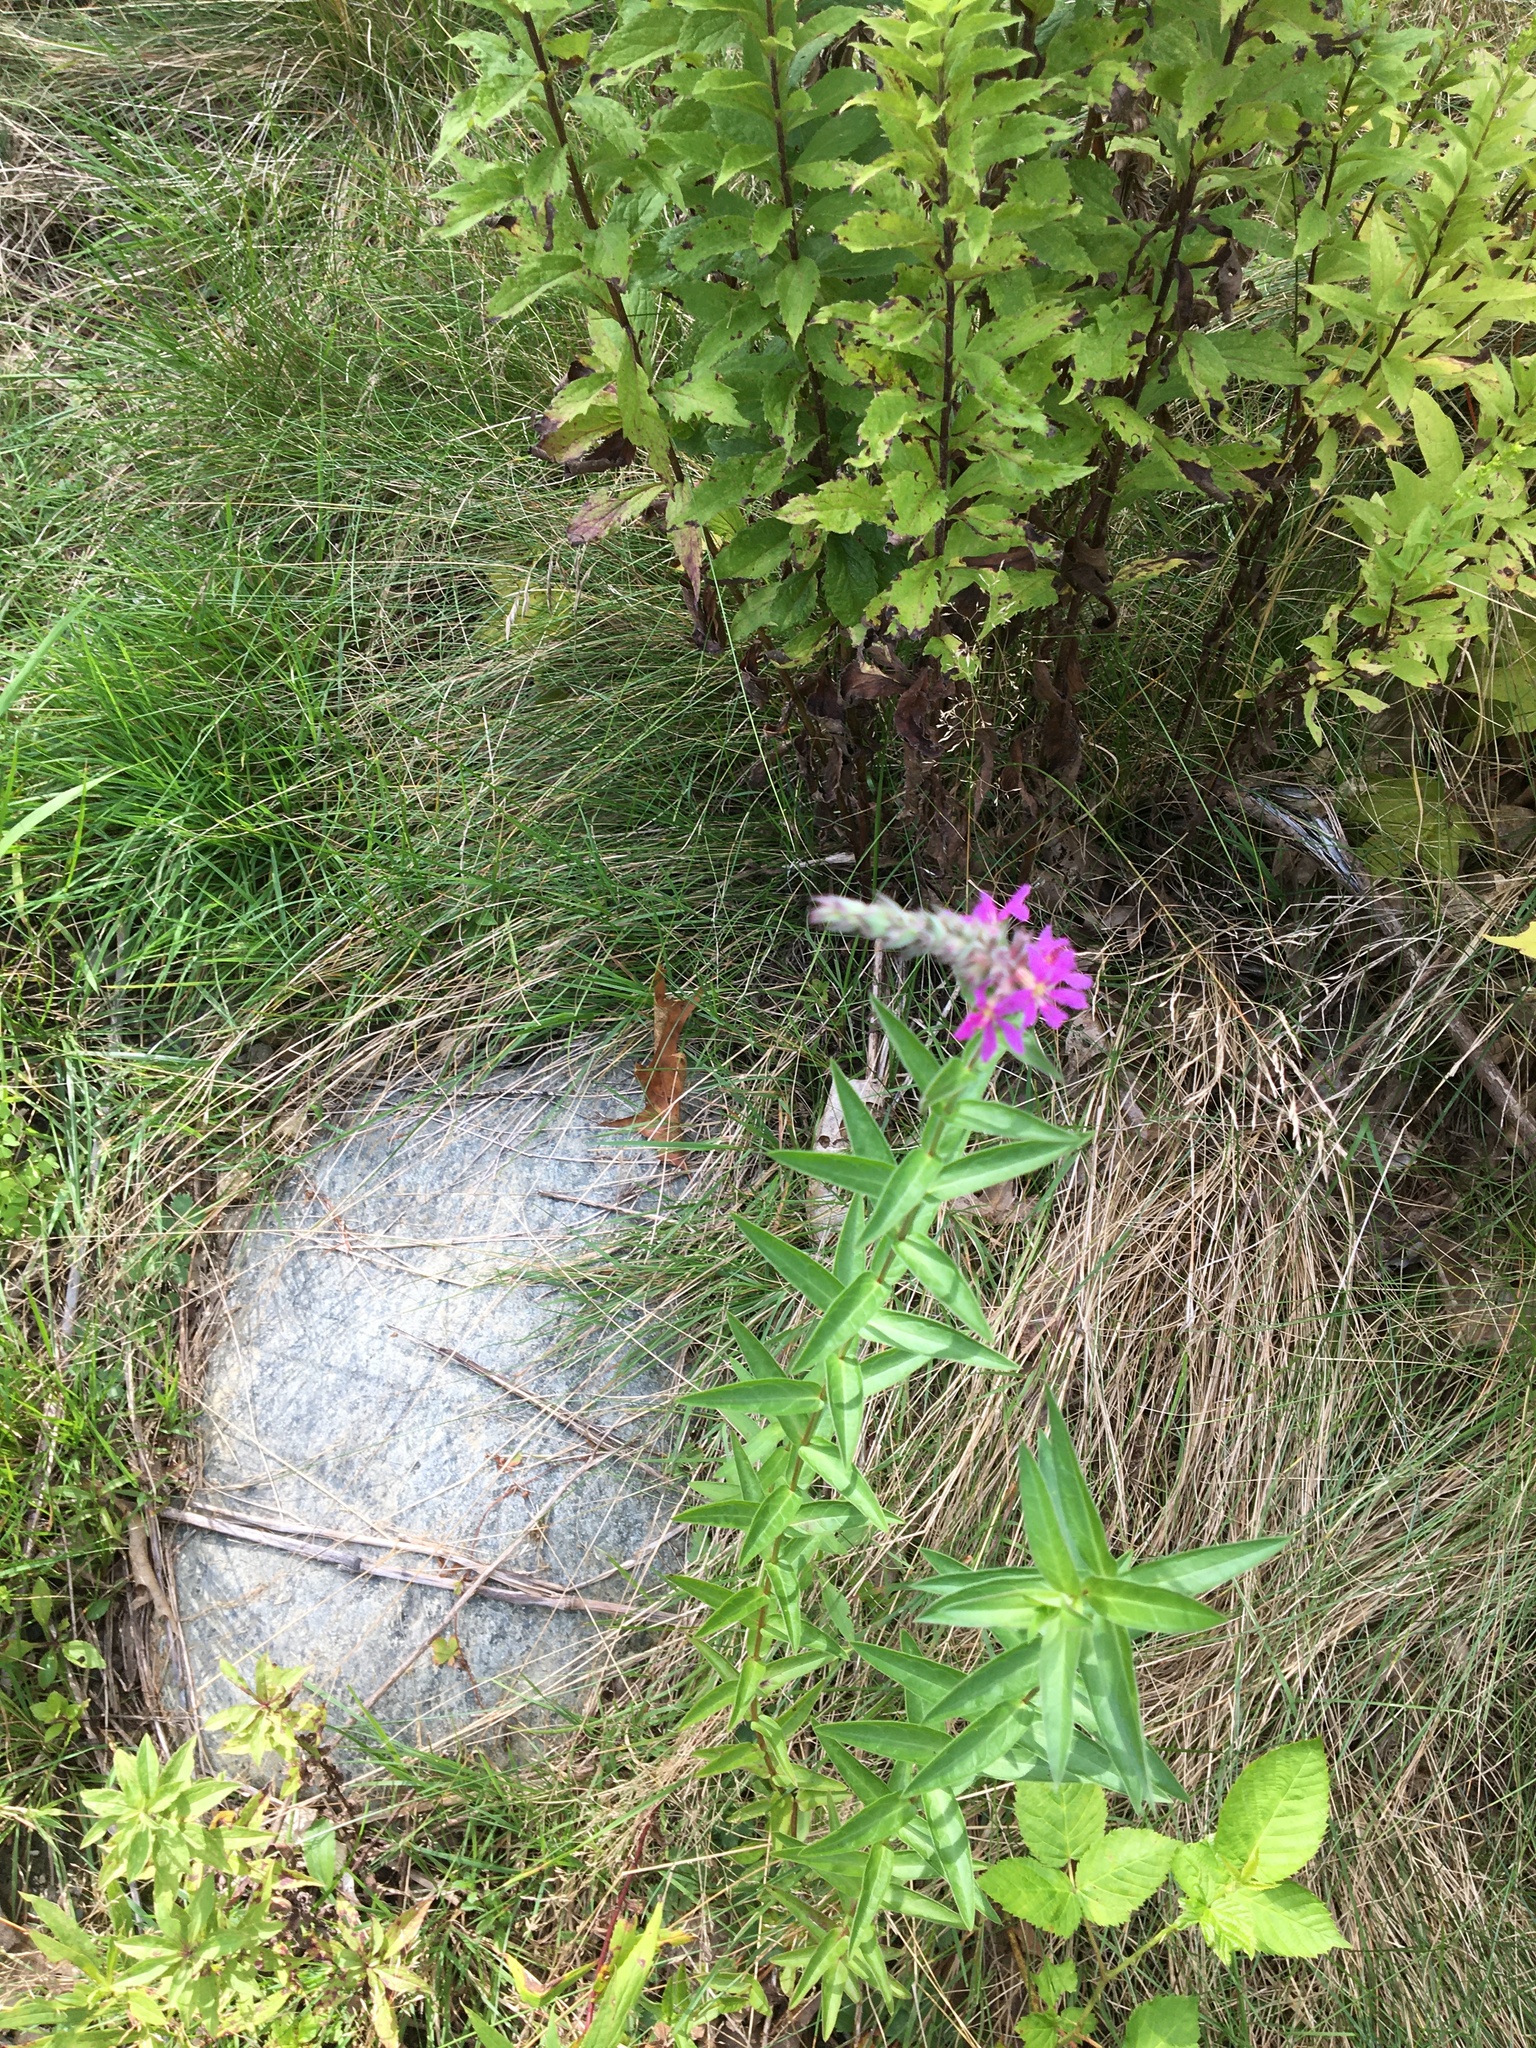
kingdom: Plantae
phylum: Tracheophyta
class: Magnoliopsida
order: Myrtales
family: Lythraceae
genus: Lythrum
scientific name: Lythrum salicaria
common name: Purple loosestrife
